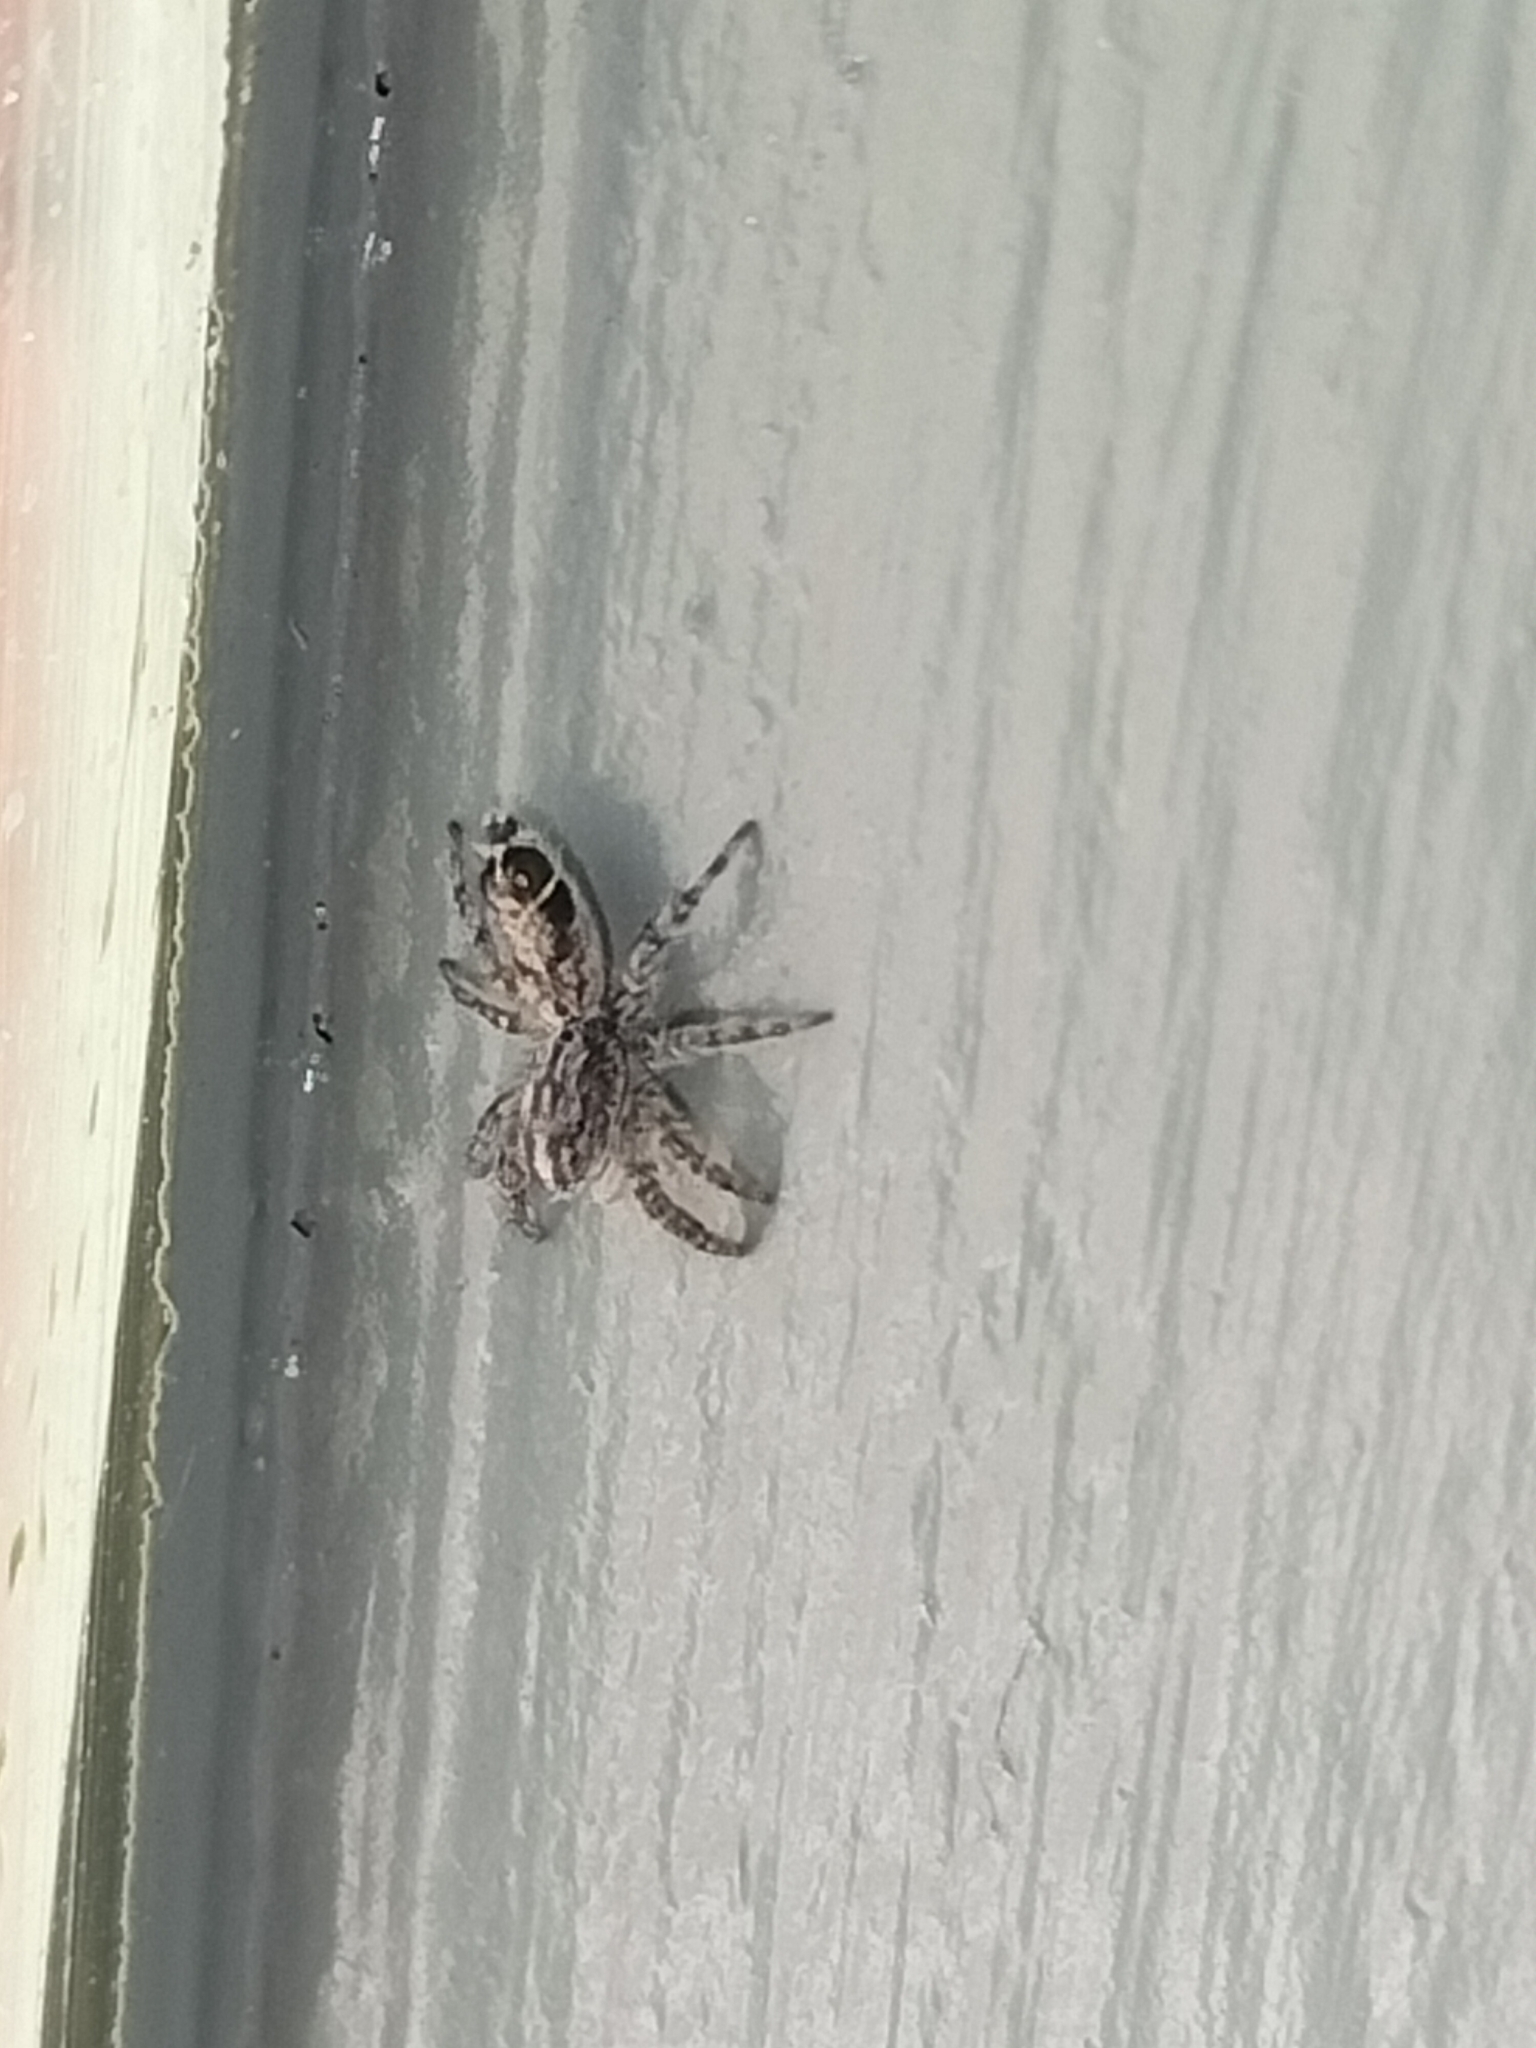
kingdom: Animalia
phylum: Arthropoda
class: Arachnida
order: Araneae
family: Salticidae
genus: Abracadabrella
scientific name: Abracadabrella
